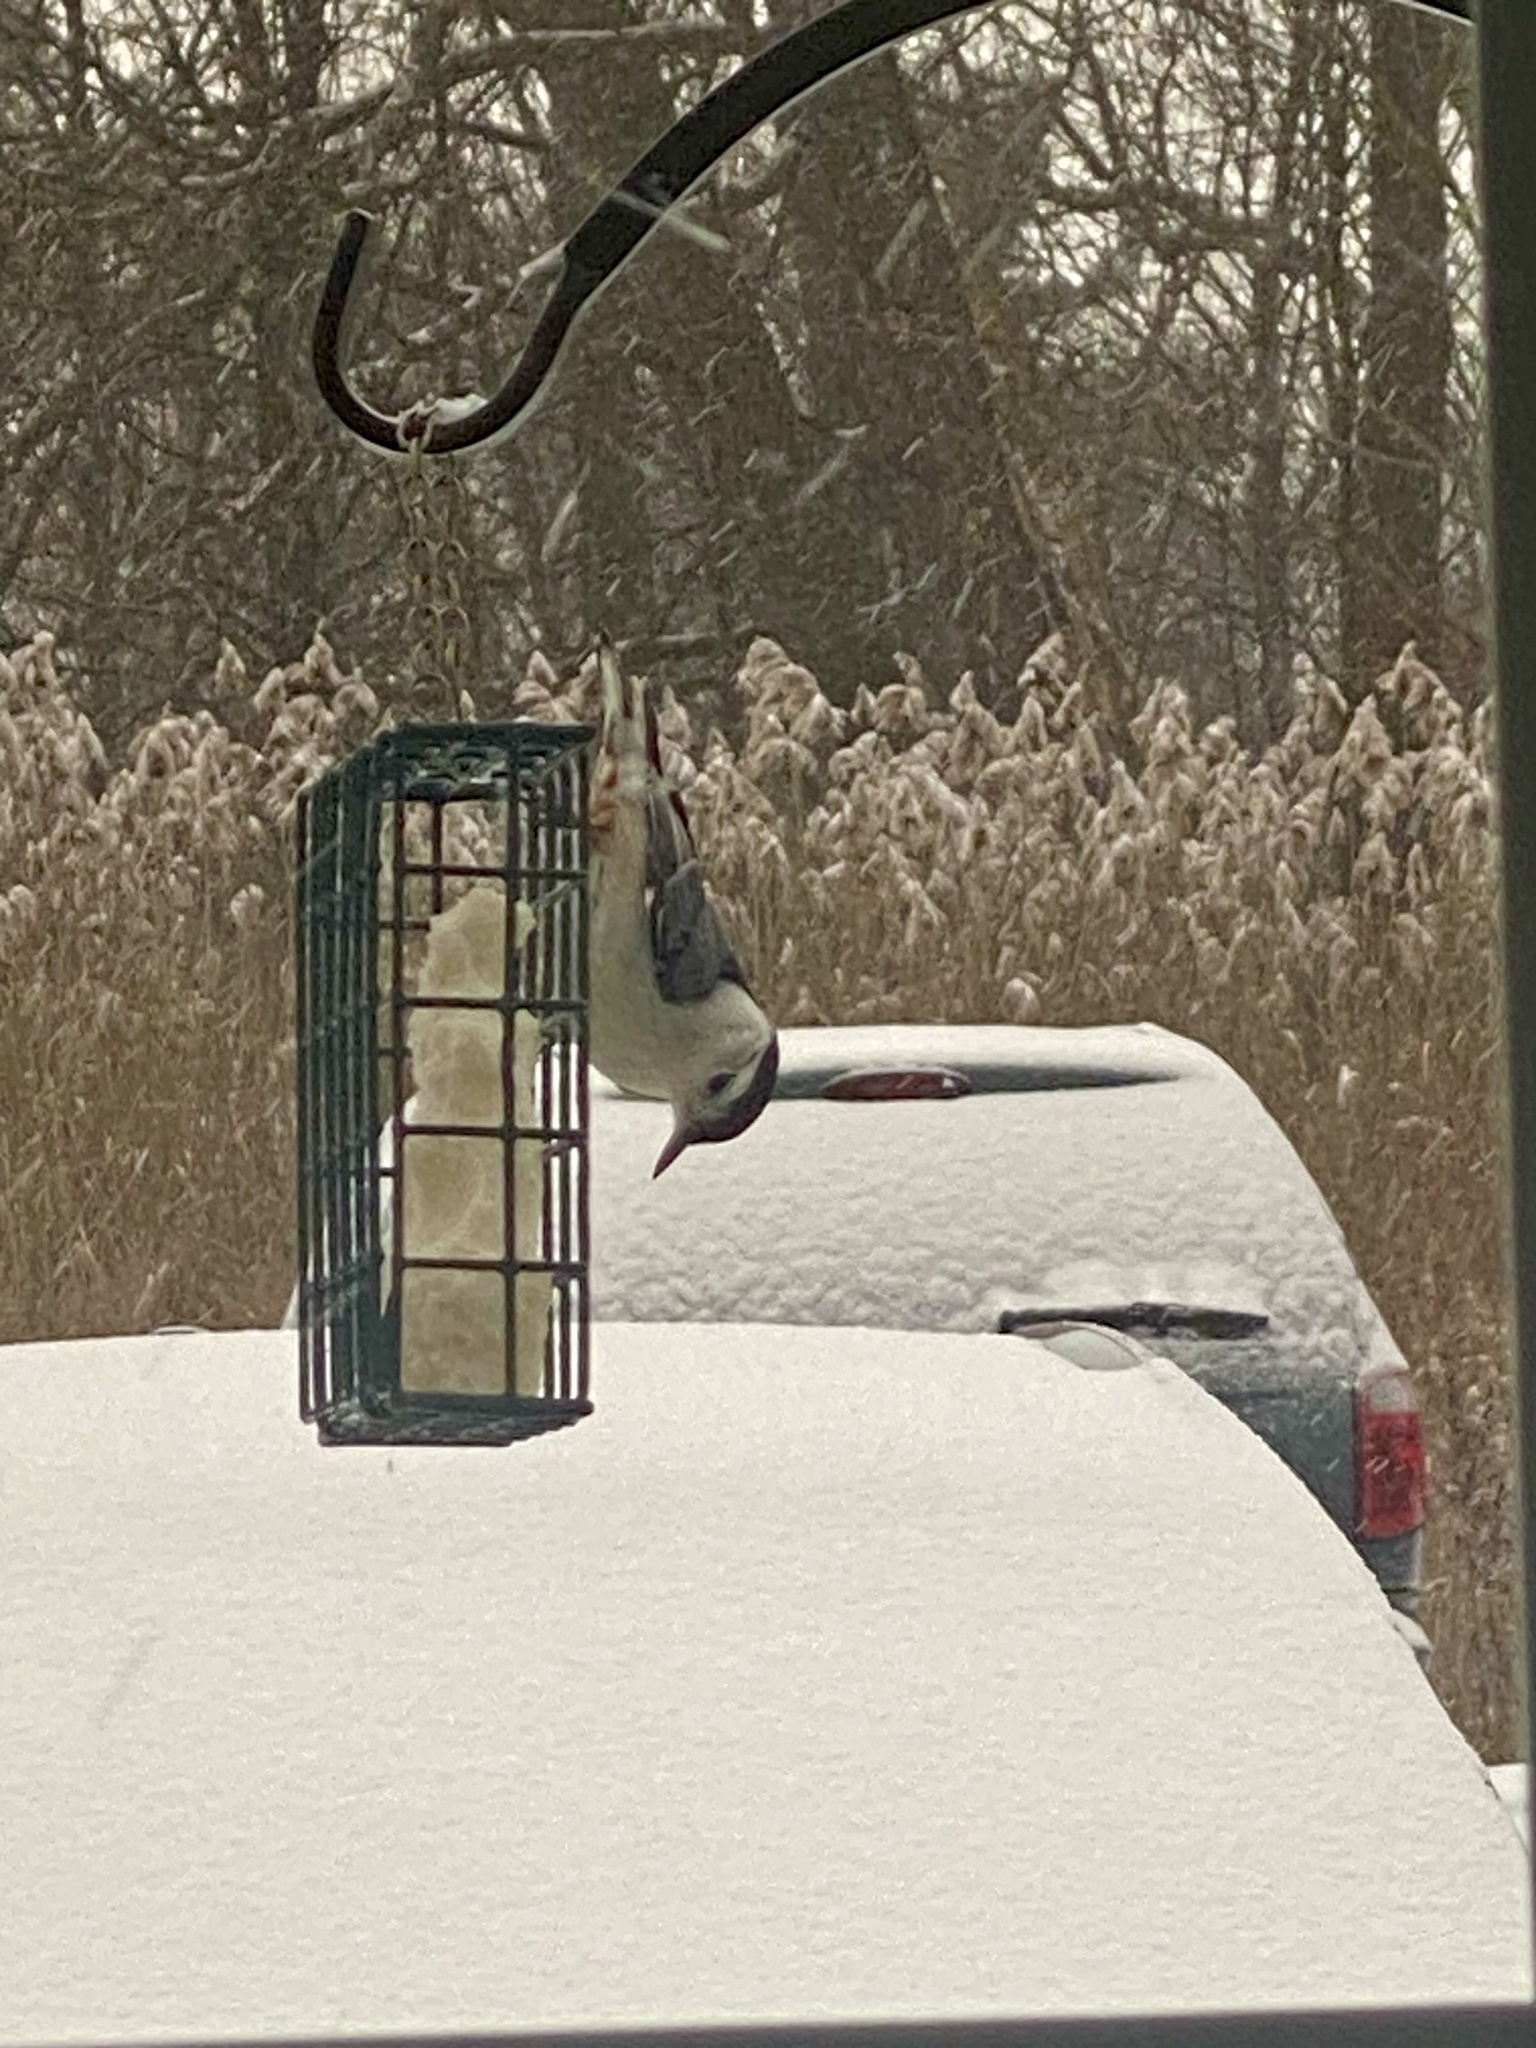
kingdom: Animalia
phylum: Chordata
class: Aves
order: Passeriformes
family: Sittidae
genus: Sitta
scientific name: Sitta carolinensis
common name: White-breasted nuthatch
